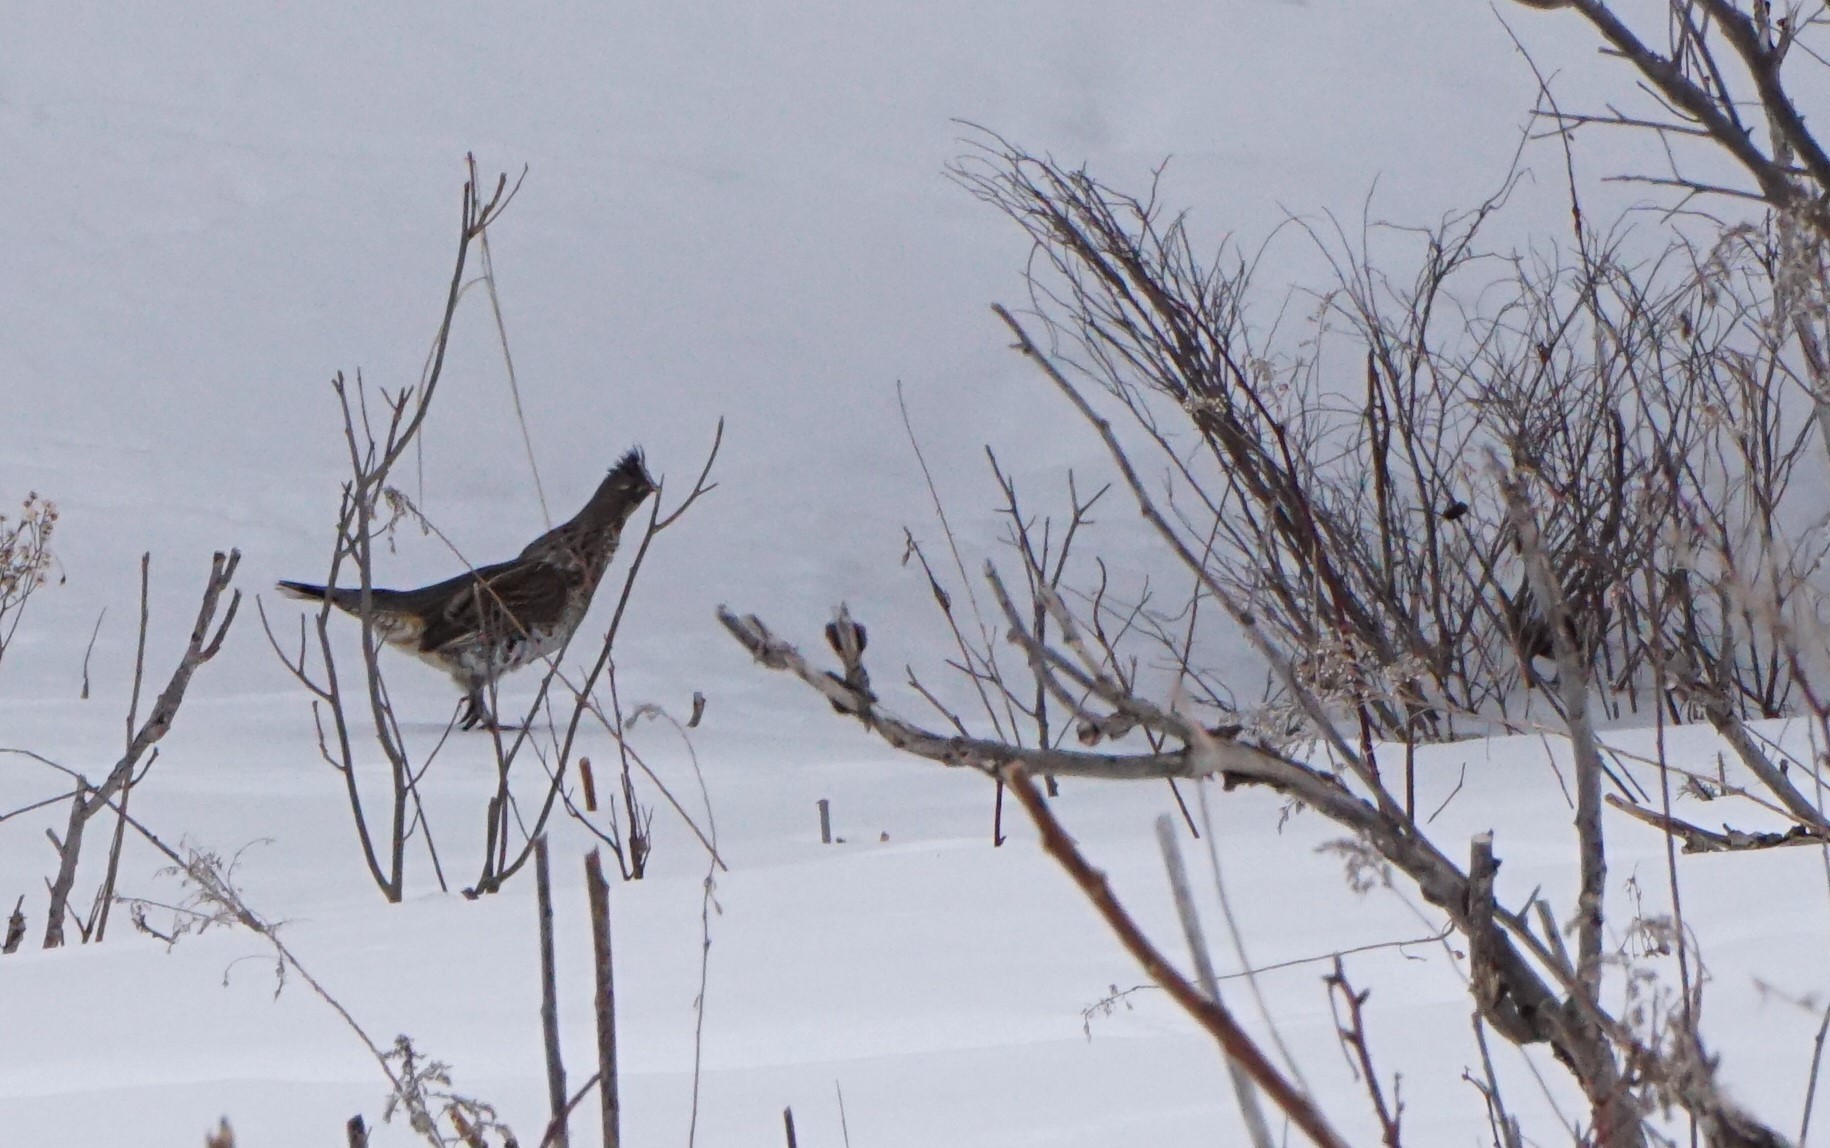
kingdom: Animalia
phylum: Chordata
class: Aves
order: Galliformes
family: Phasianidae
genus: Bonasa
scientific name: Bonasa umbellus
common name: Ruffed grouse
